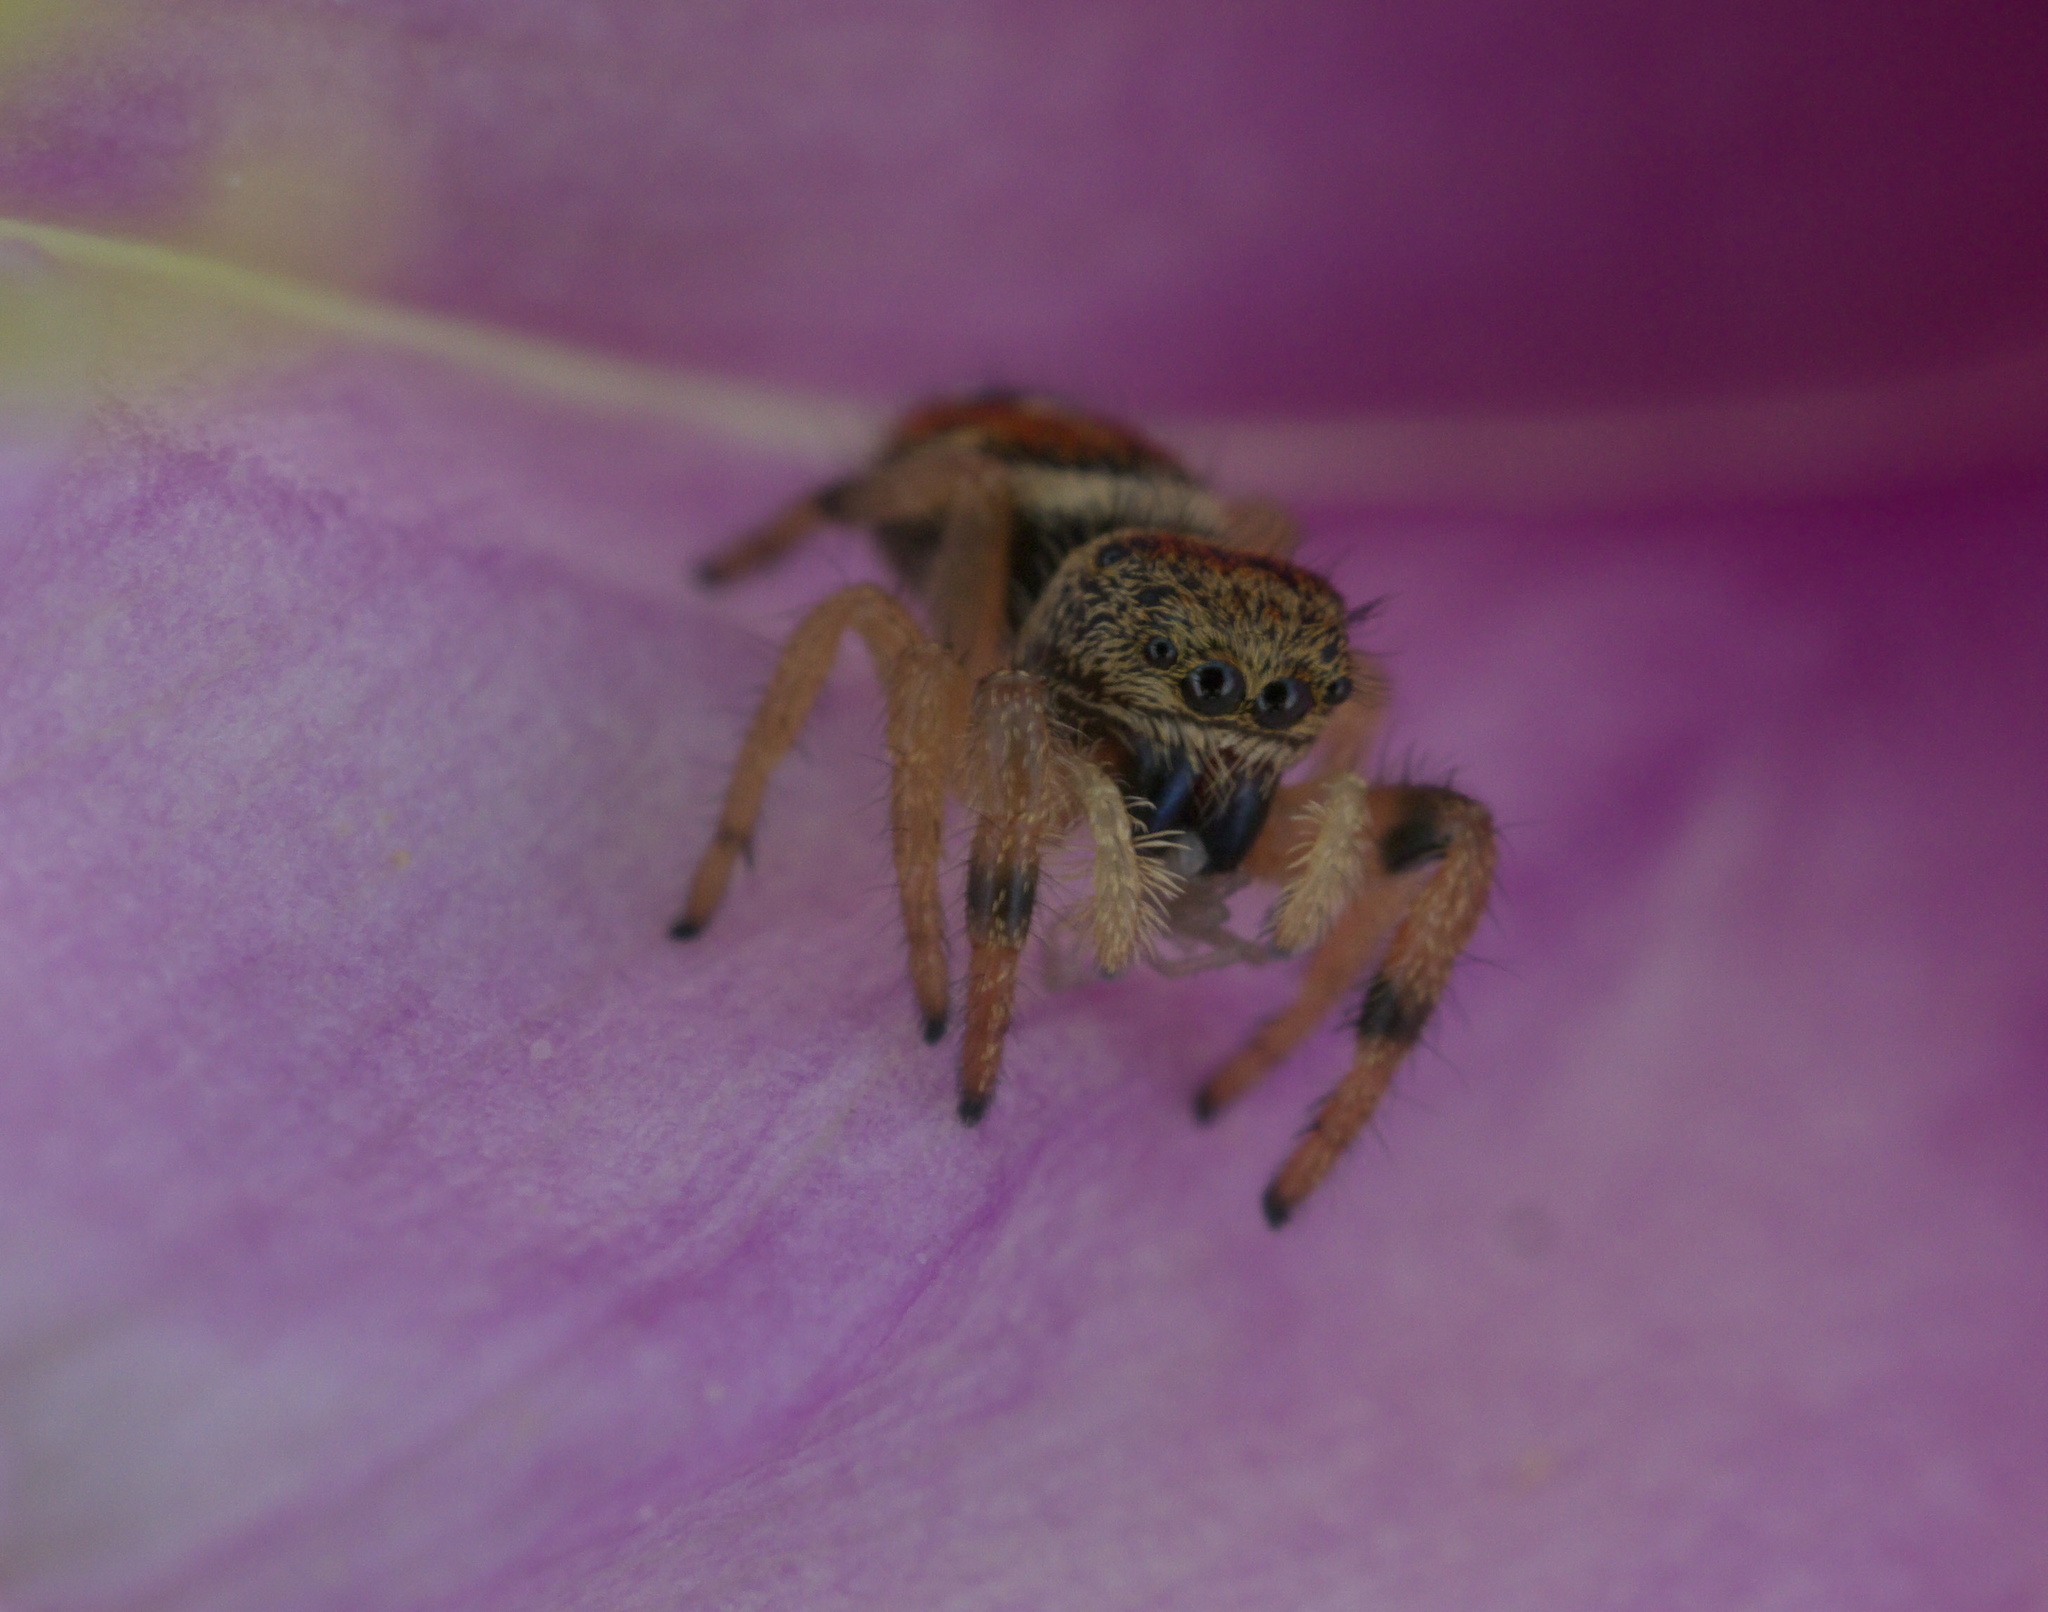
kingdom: Animalia
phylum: Arthropoda
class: Arachnida
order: Araneae
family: Salticidae
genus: Phidippus
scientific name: Phidippus apacheanus
